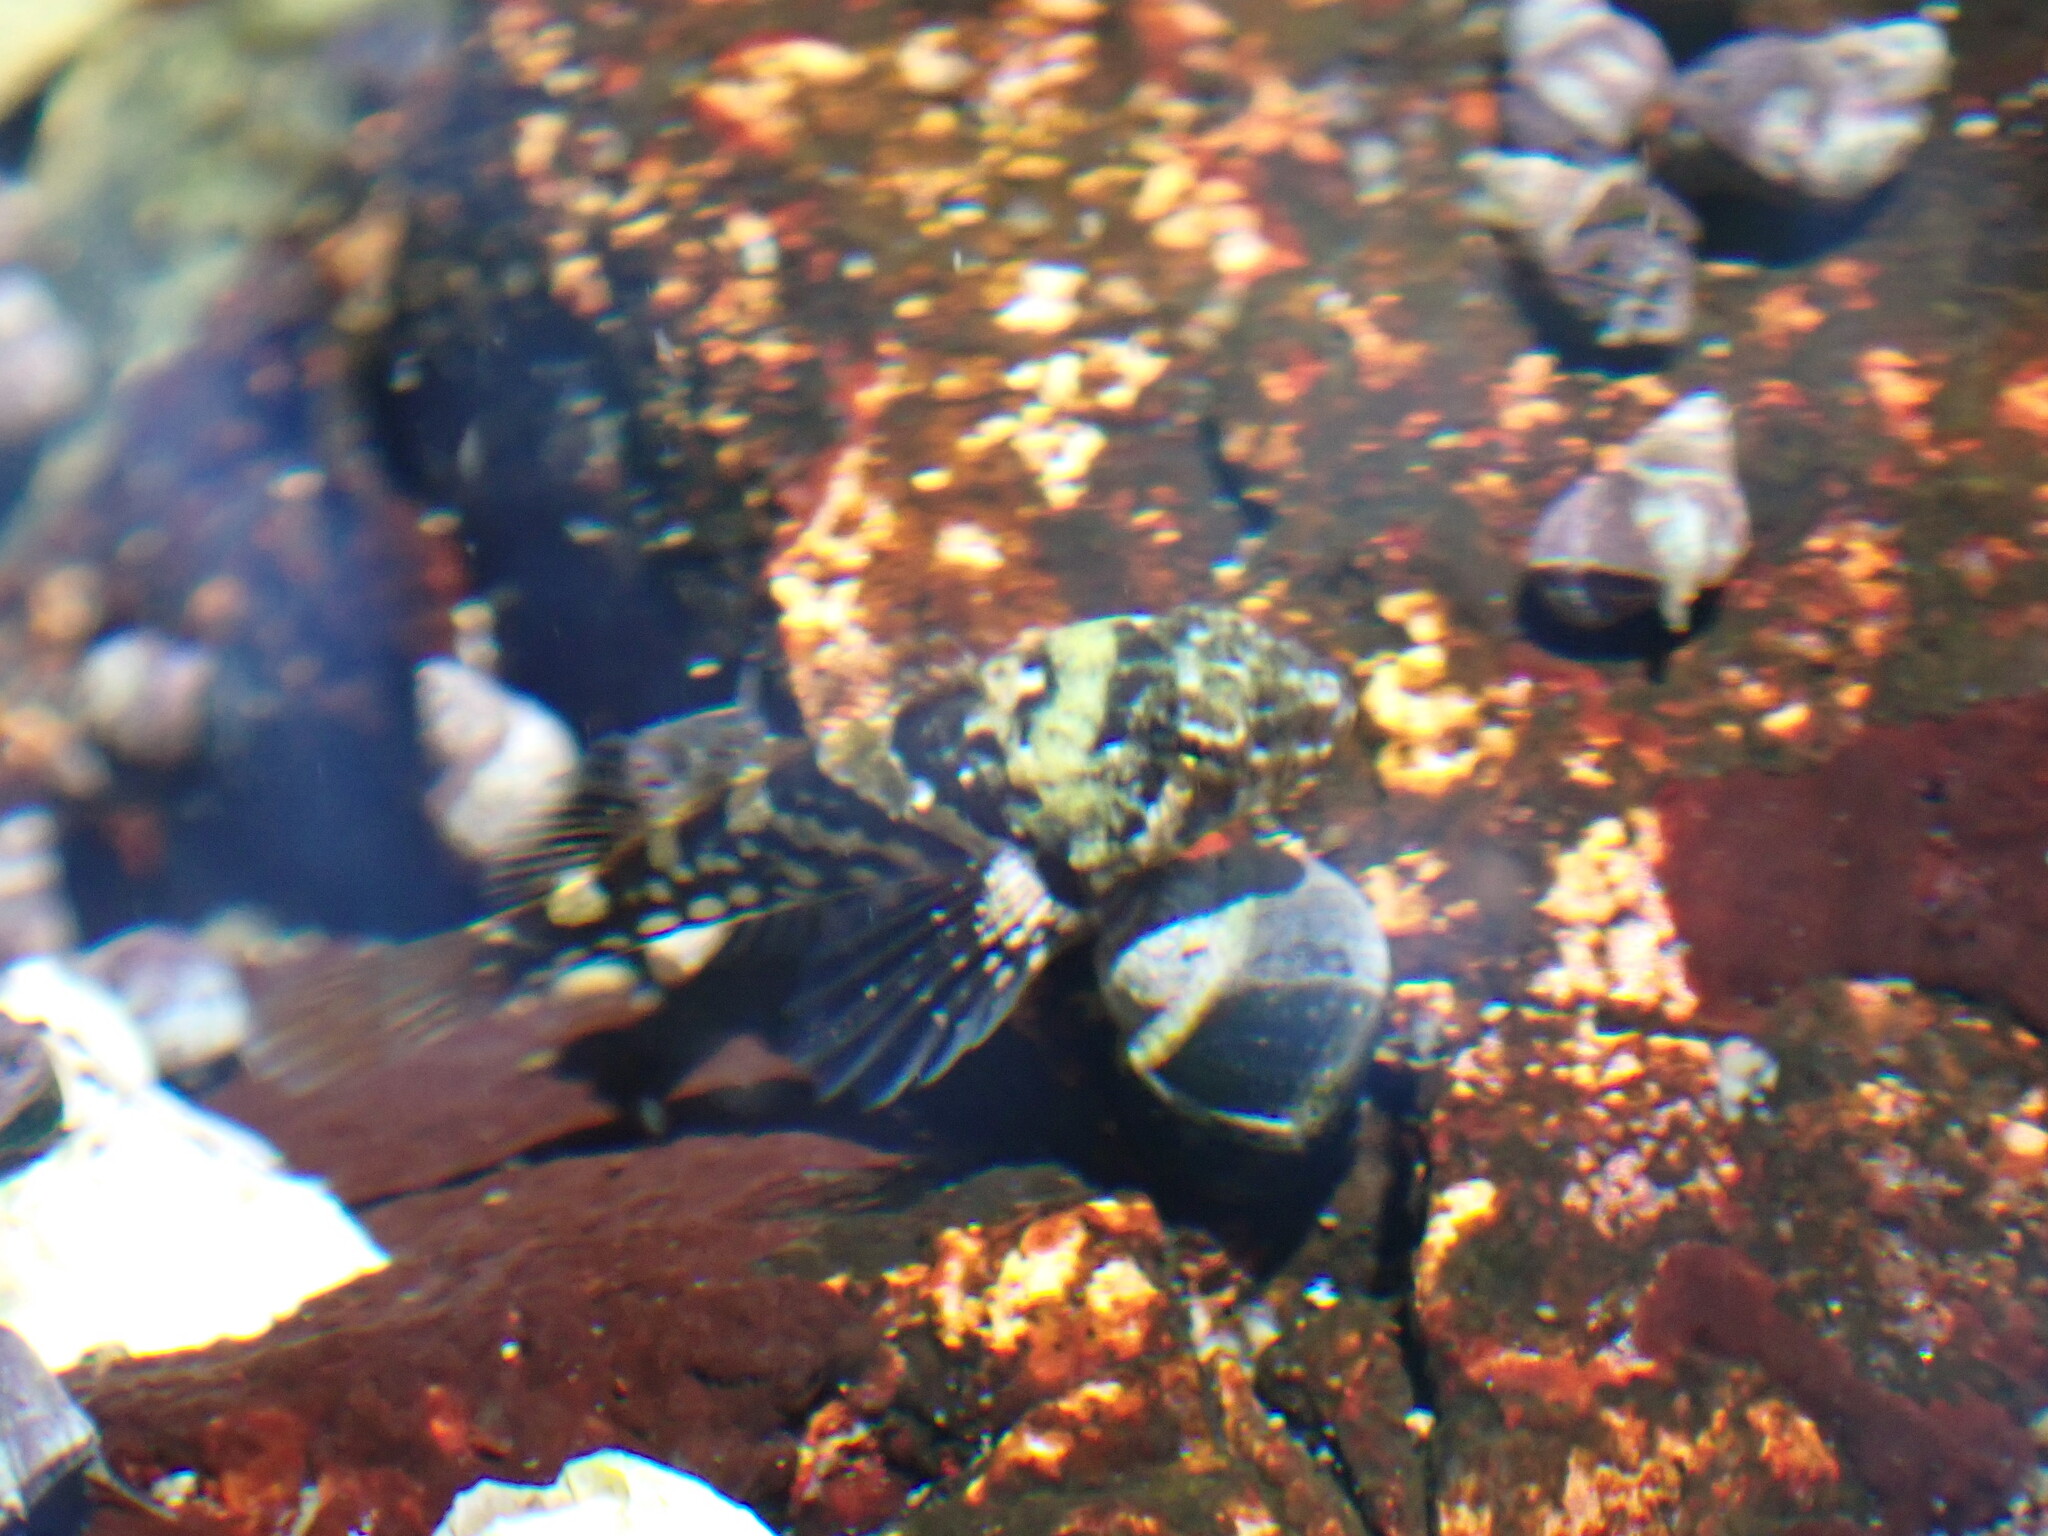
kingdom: Animalia
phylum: Chordata
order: Scorpaeniformes
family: Cottidae
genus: Oligocottus
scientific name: Oligocottus maculosus
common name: Tidepool sculpin
